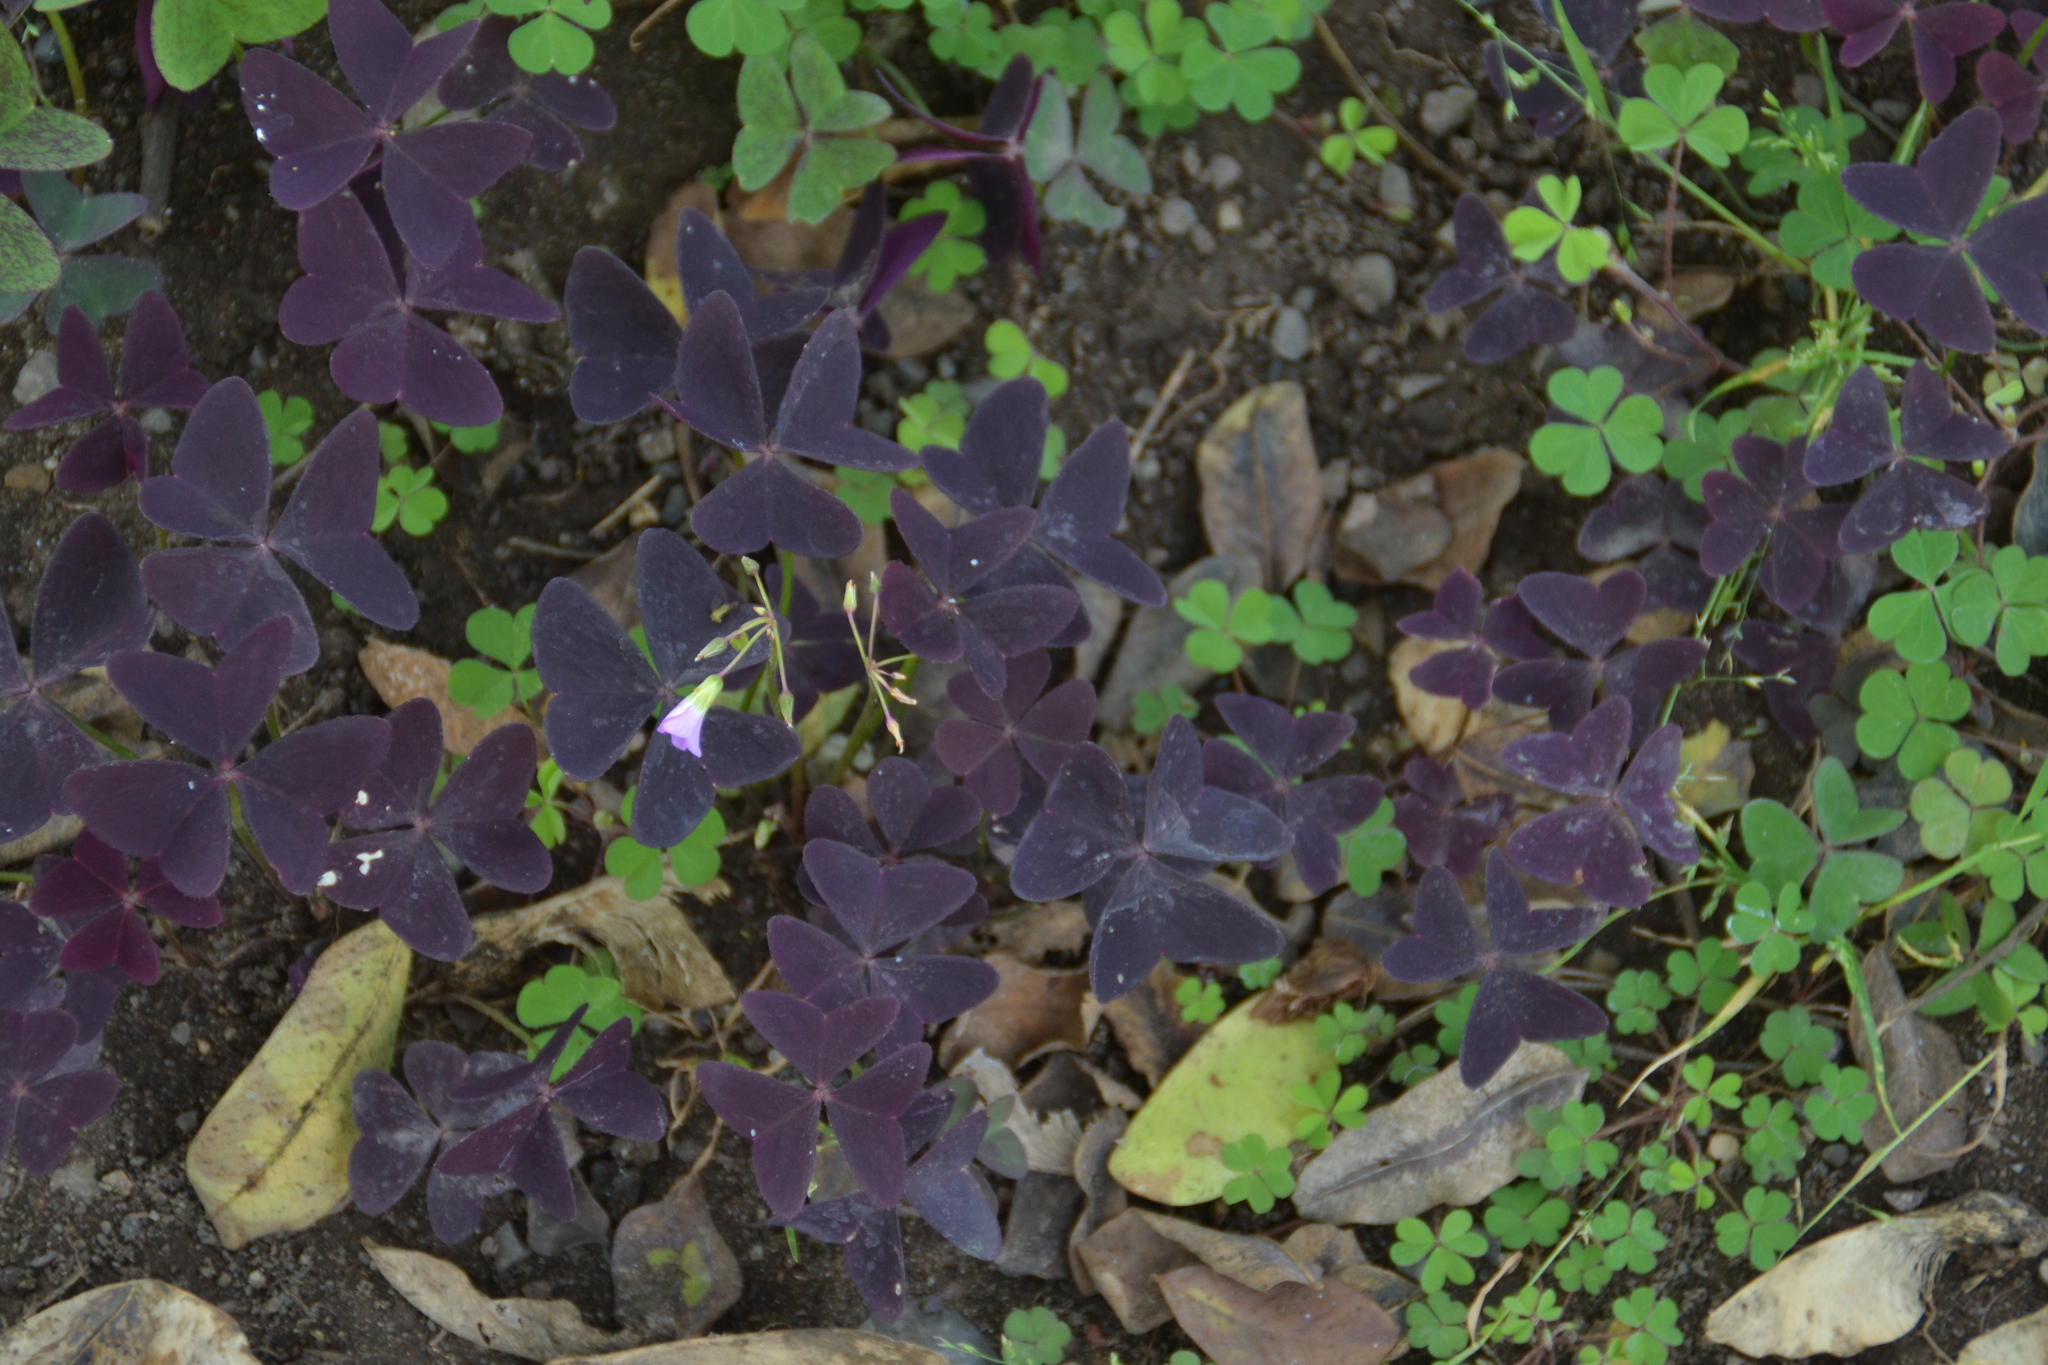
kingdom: Plantae
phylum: Tracheophyta
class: Magnoliopsida
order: Oxalidales
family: Oxalidaceae
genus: Oxalis
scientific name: Oxalis triangularis
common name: Wood sorrel
